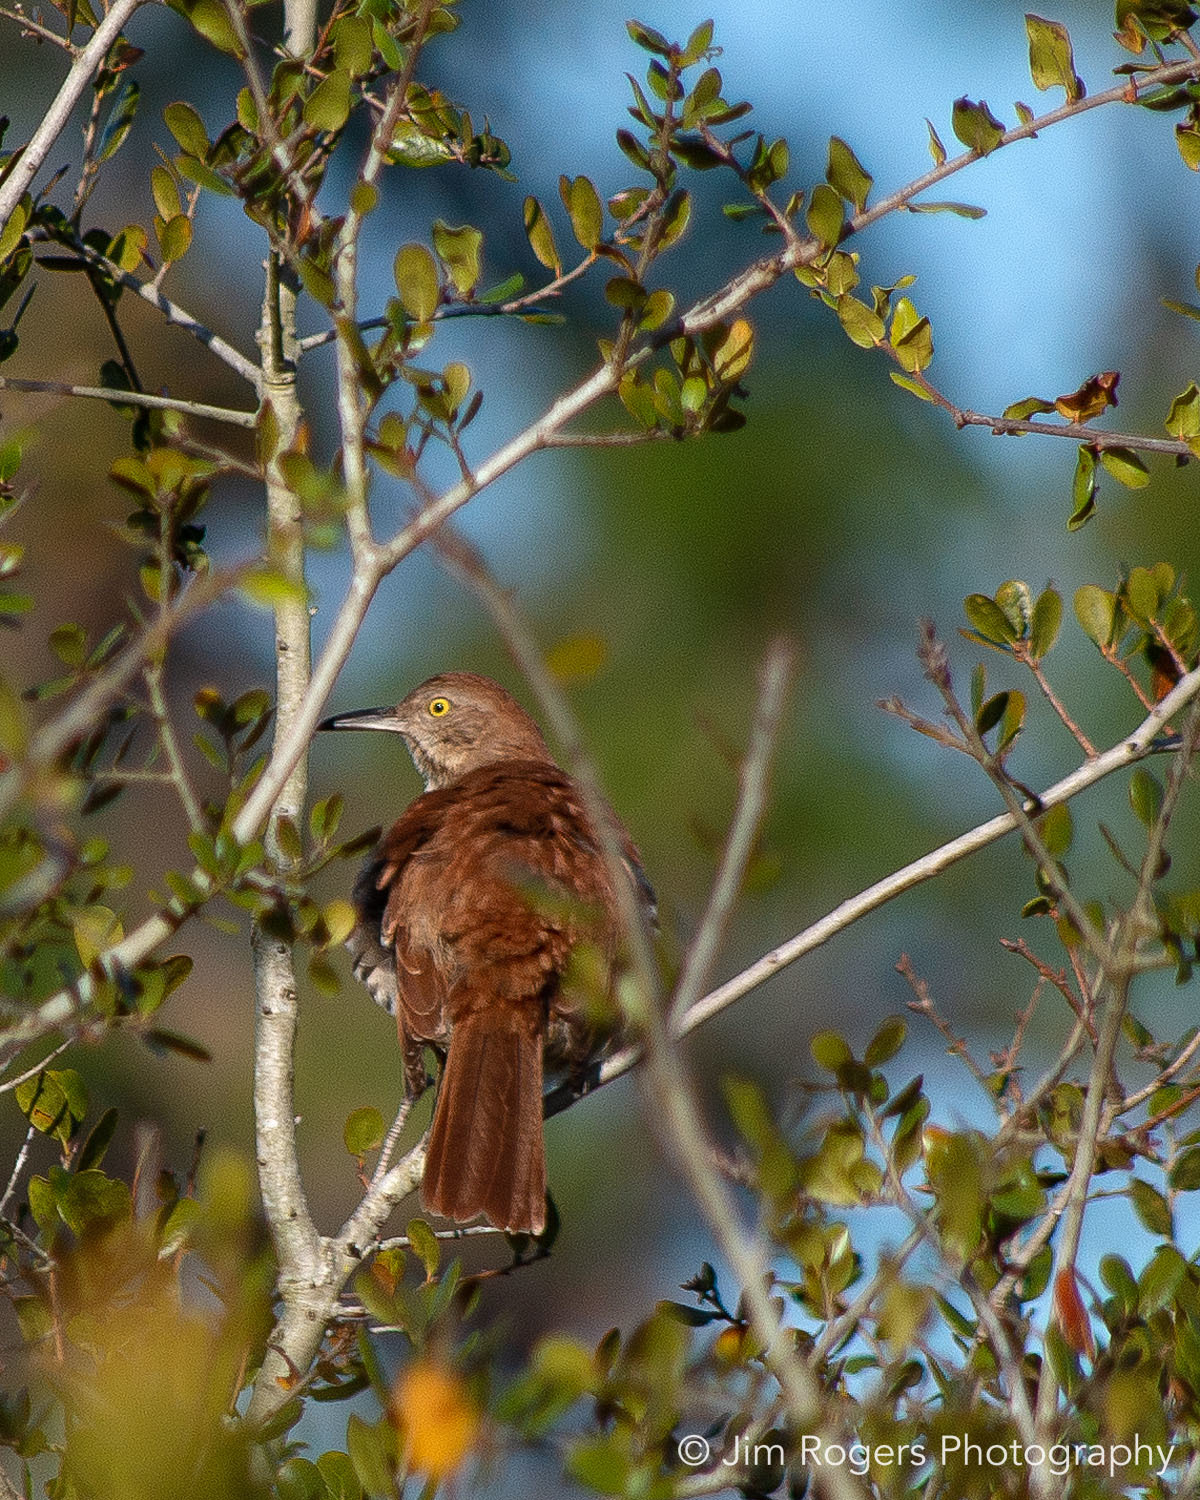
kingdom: Animalia
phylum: Chordata
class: Aves
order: Passeriformes
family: Mimidae
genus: Toxostoma
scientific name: Toxostoma rufum
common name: Brown thrasher
